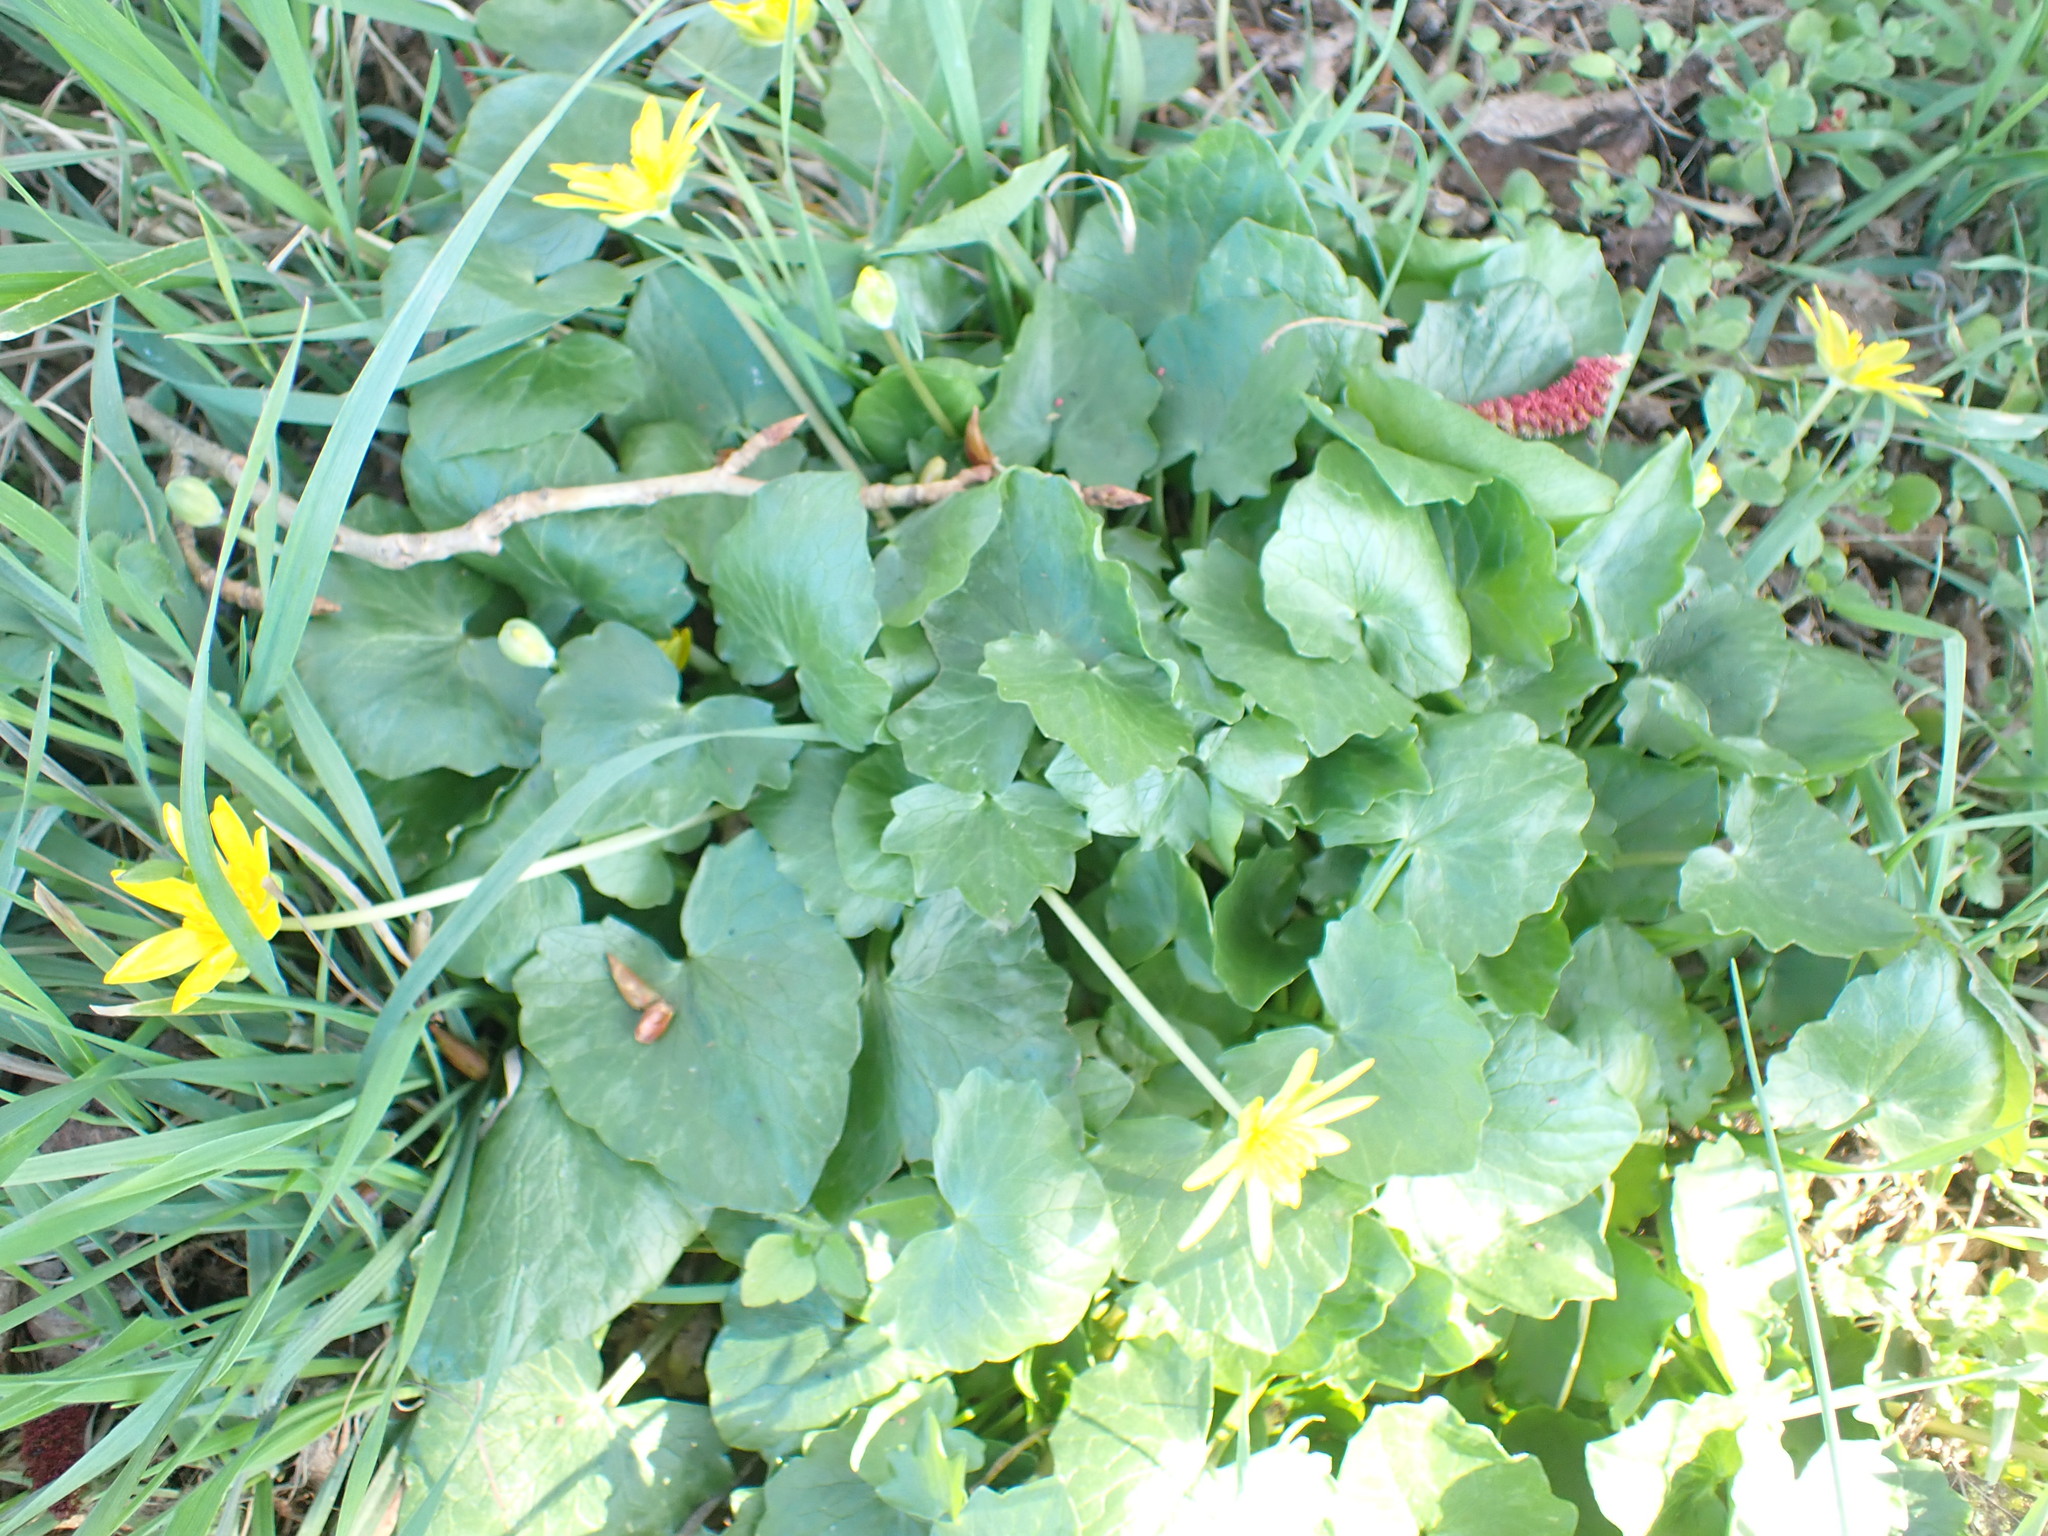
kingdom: Plantae
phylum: Tracheophyta
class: Magnoliopsida
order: Ranunculales
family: Ranunculaceae
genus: Ficaria
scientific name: Ficaria verna
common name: Lesser celandine
